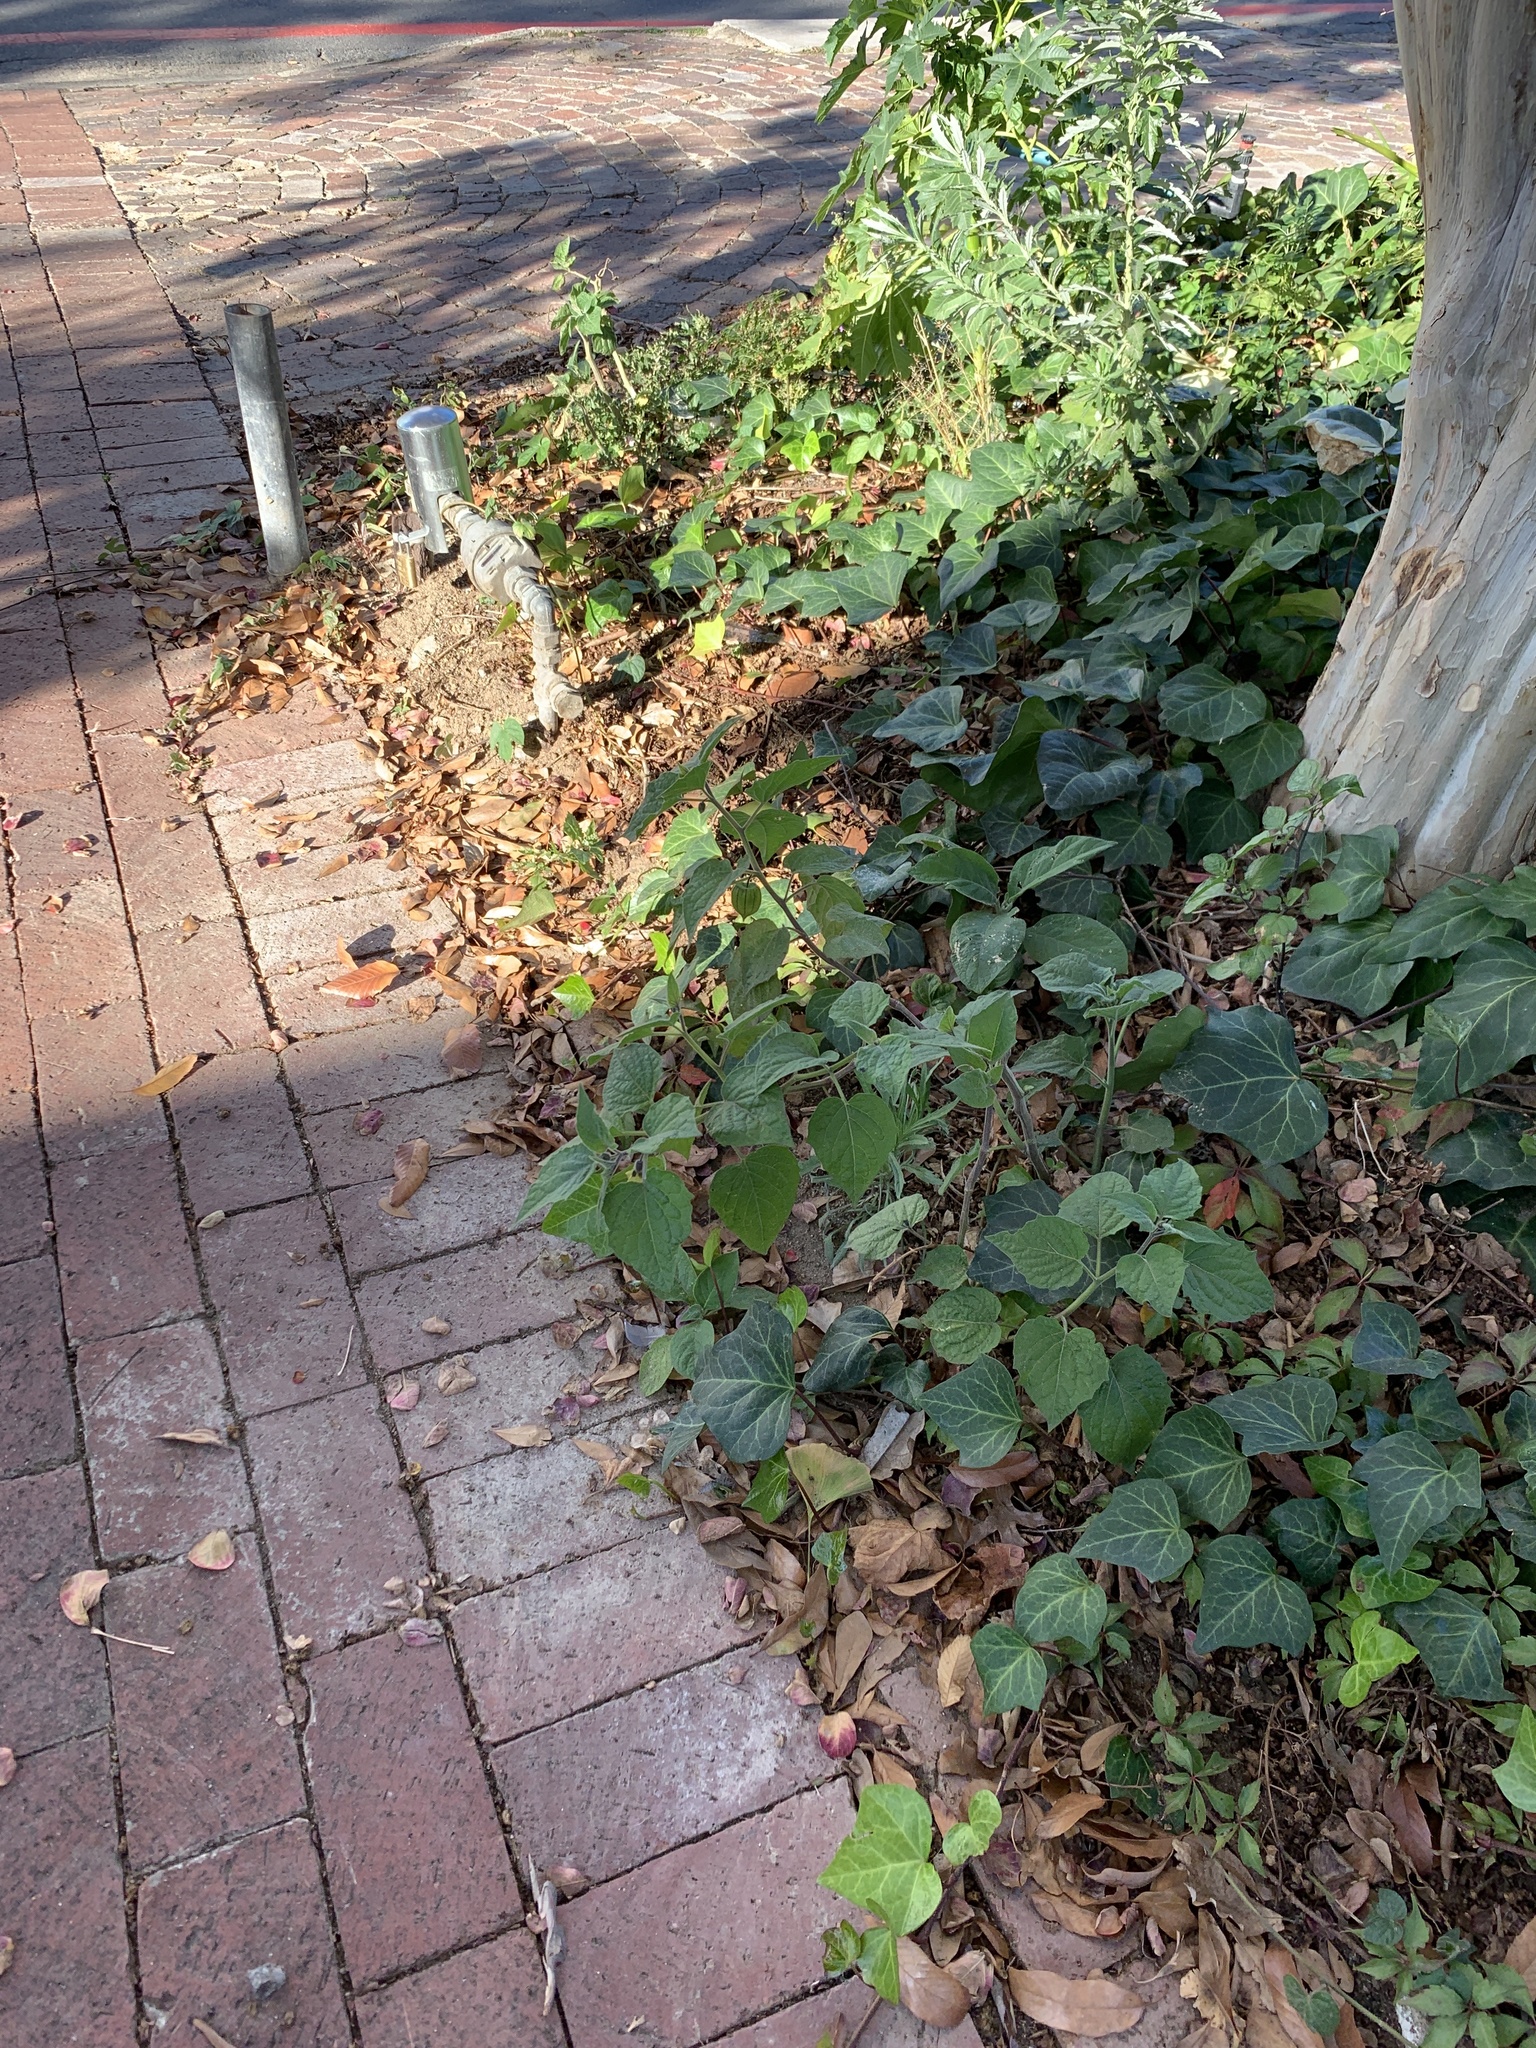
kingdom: Plantae
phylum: Tracheophyta
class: Magnoliopsida
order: Solanales
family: Solanaceae
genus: Physalis
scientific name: Physalis peruviana
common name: Cape-gooseberry
